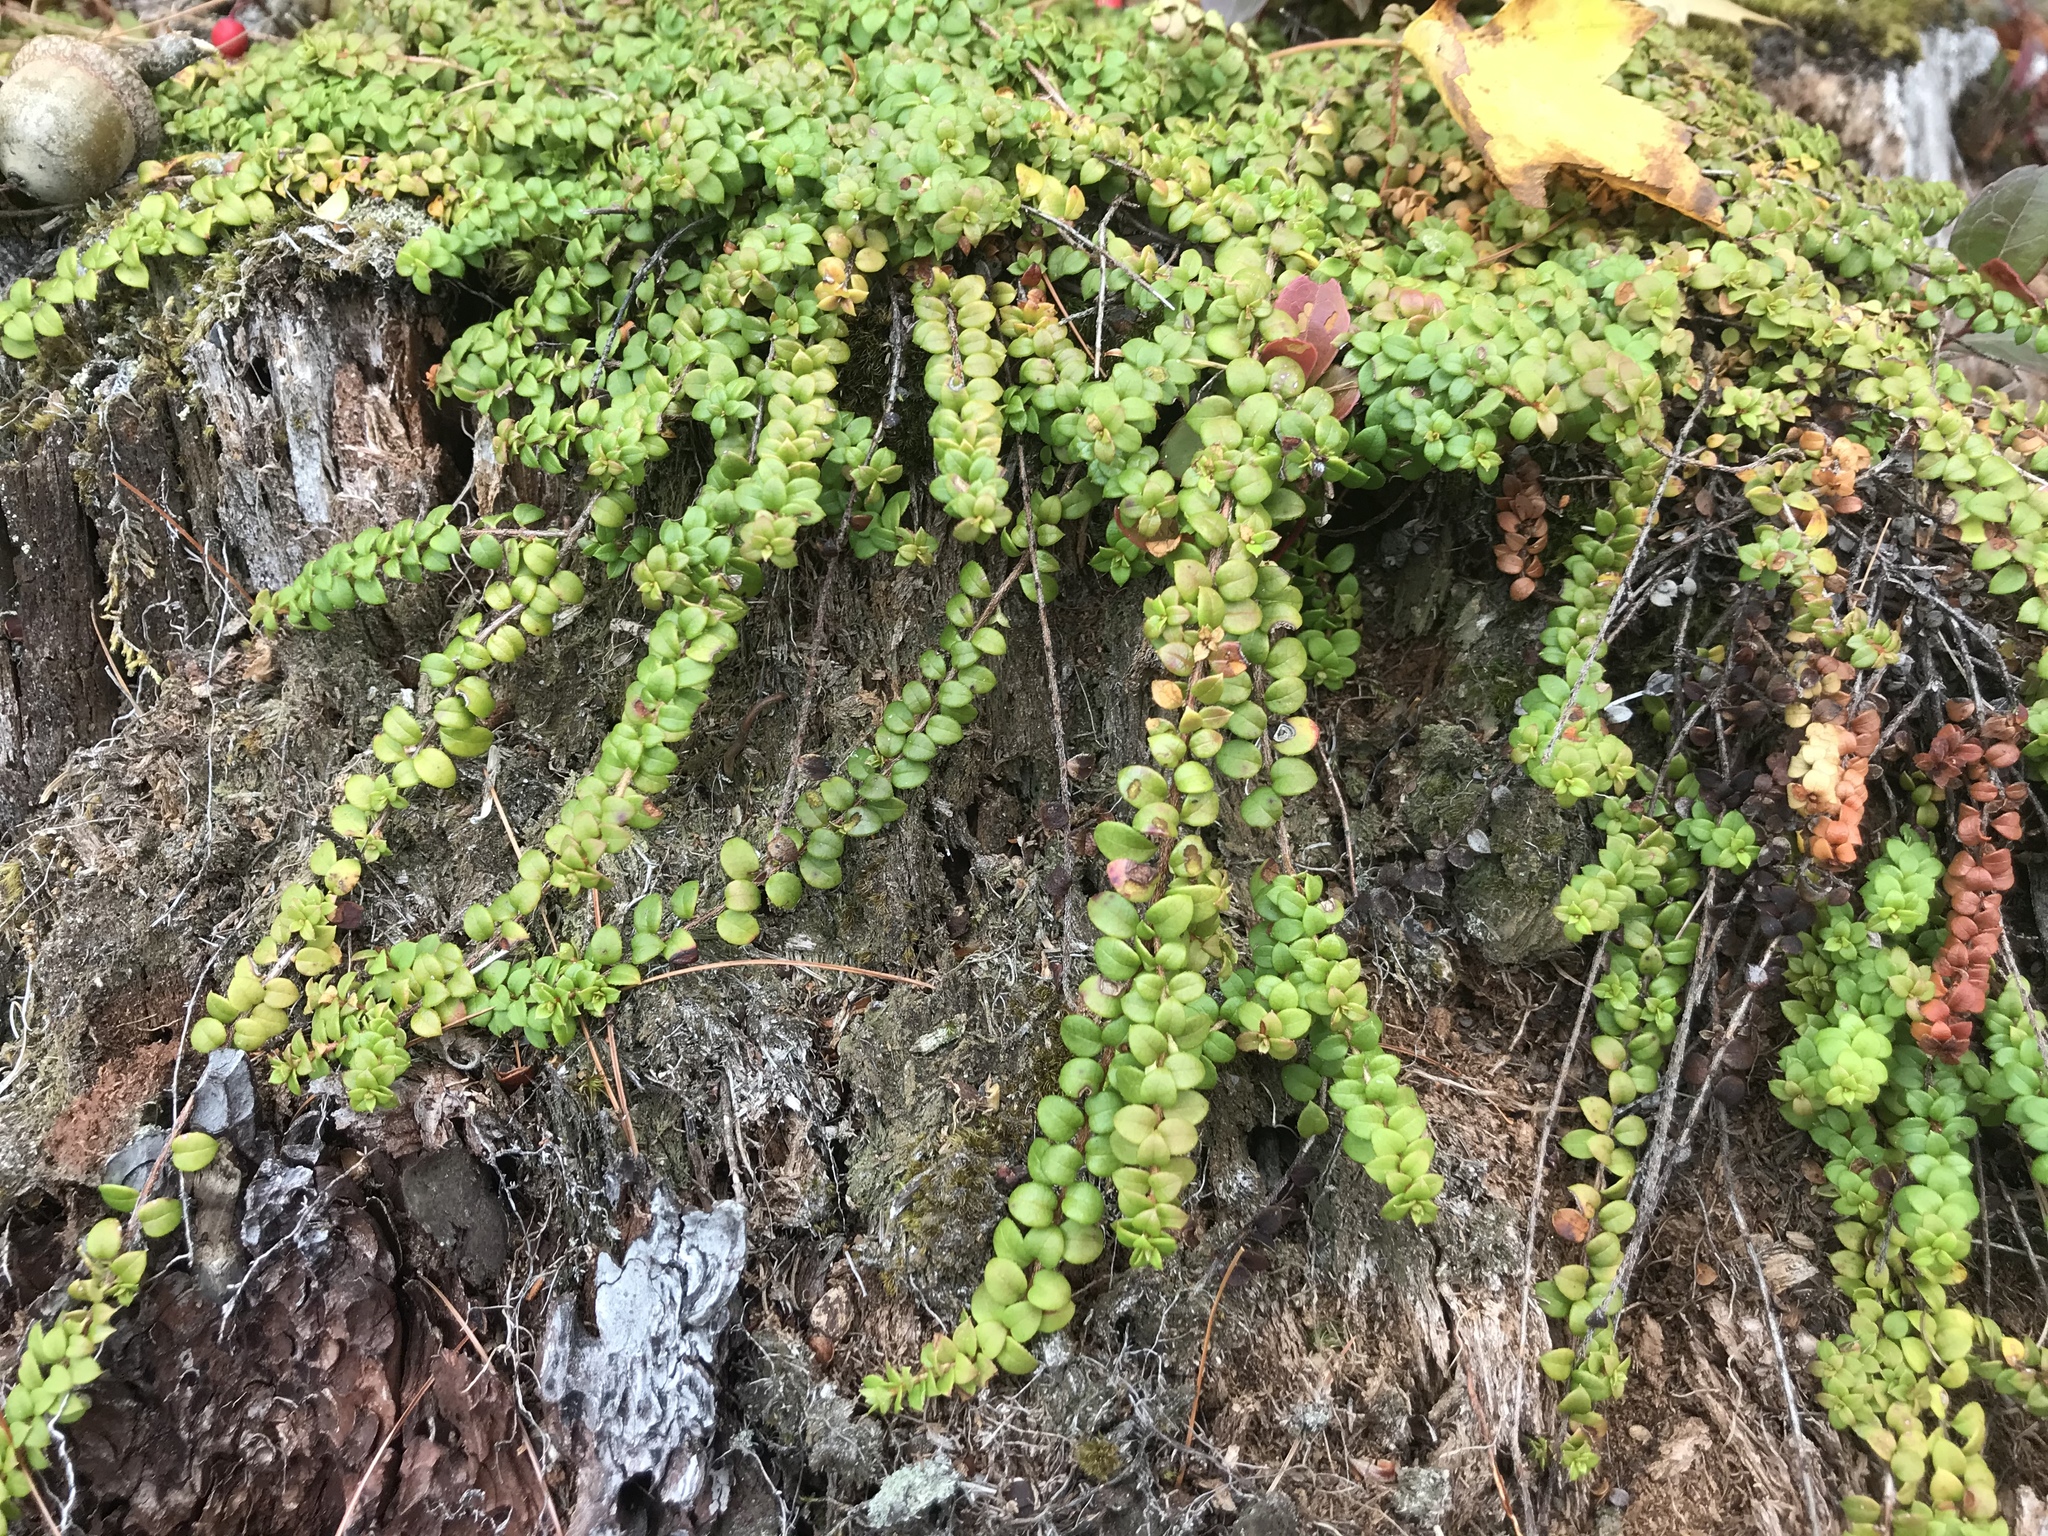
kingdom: Plantae
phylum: Tracheophyta
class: Magnoliopsida
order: Ericales
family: Ericaceae
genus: Gaultheria
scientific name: Gaultheria hispidula
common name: Cancer wintergreen
